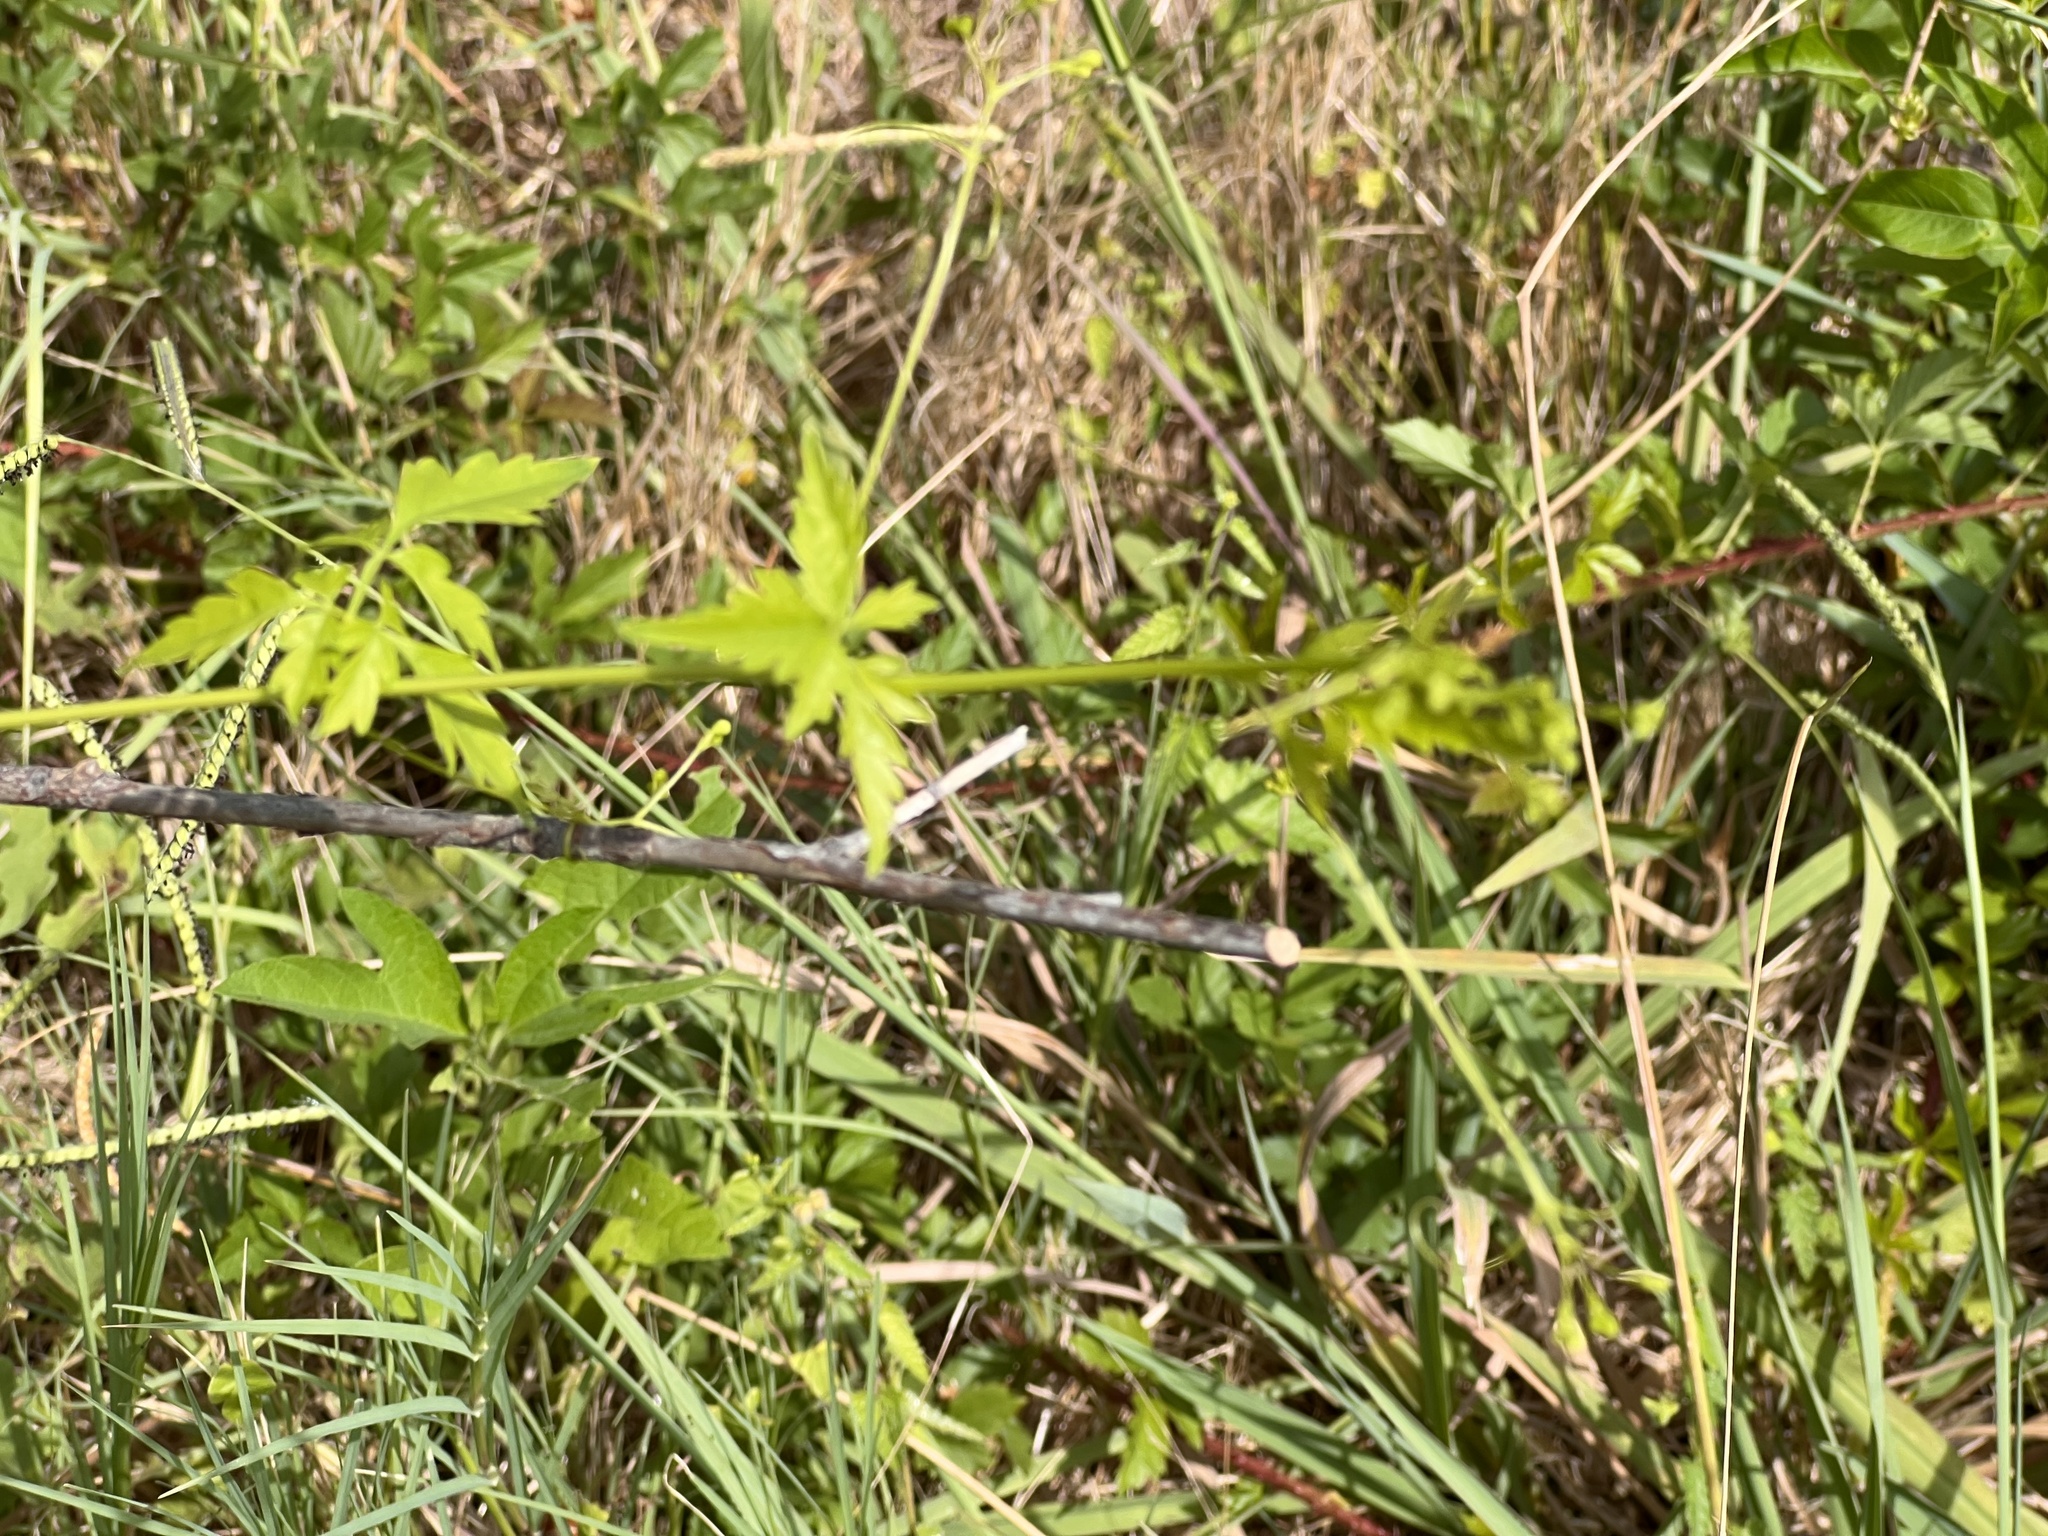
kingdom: Plantae
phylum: Tracheophyta
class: Magnoliopsida
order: Sapindales
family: Sapindaceae
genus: Cardiospermum
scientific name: Cardiospermum halicacabum
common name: Balloon vine
